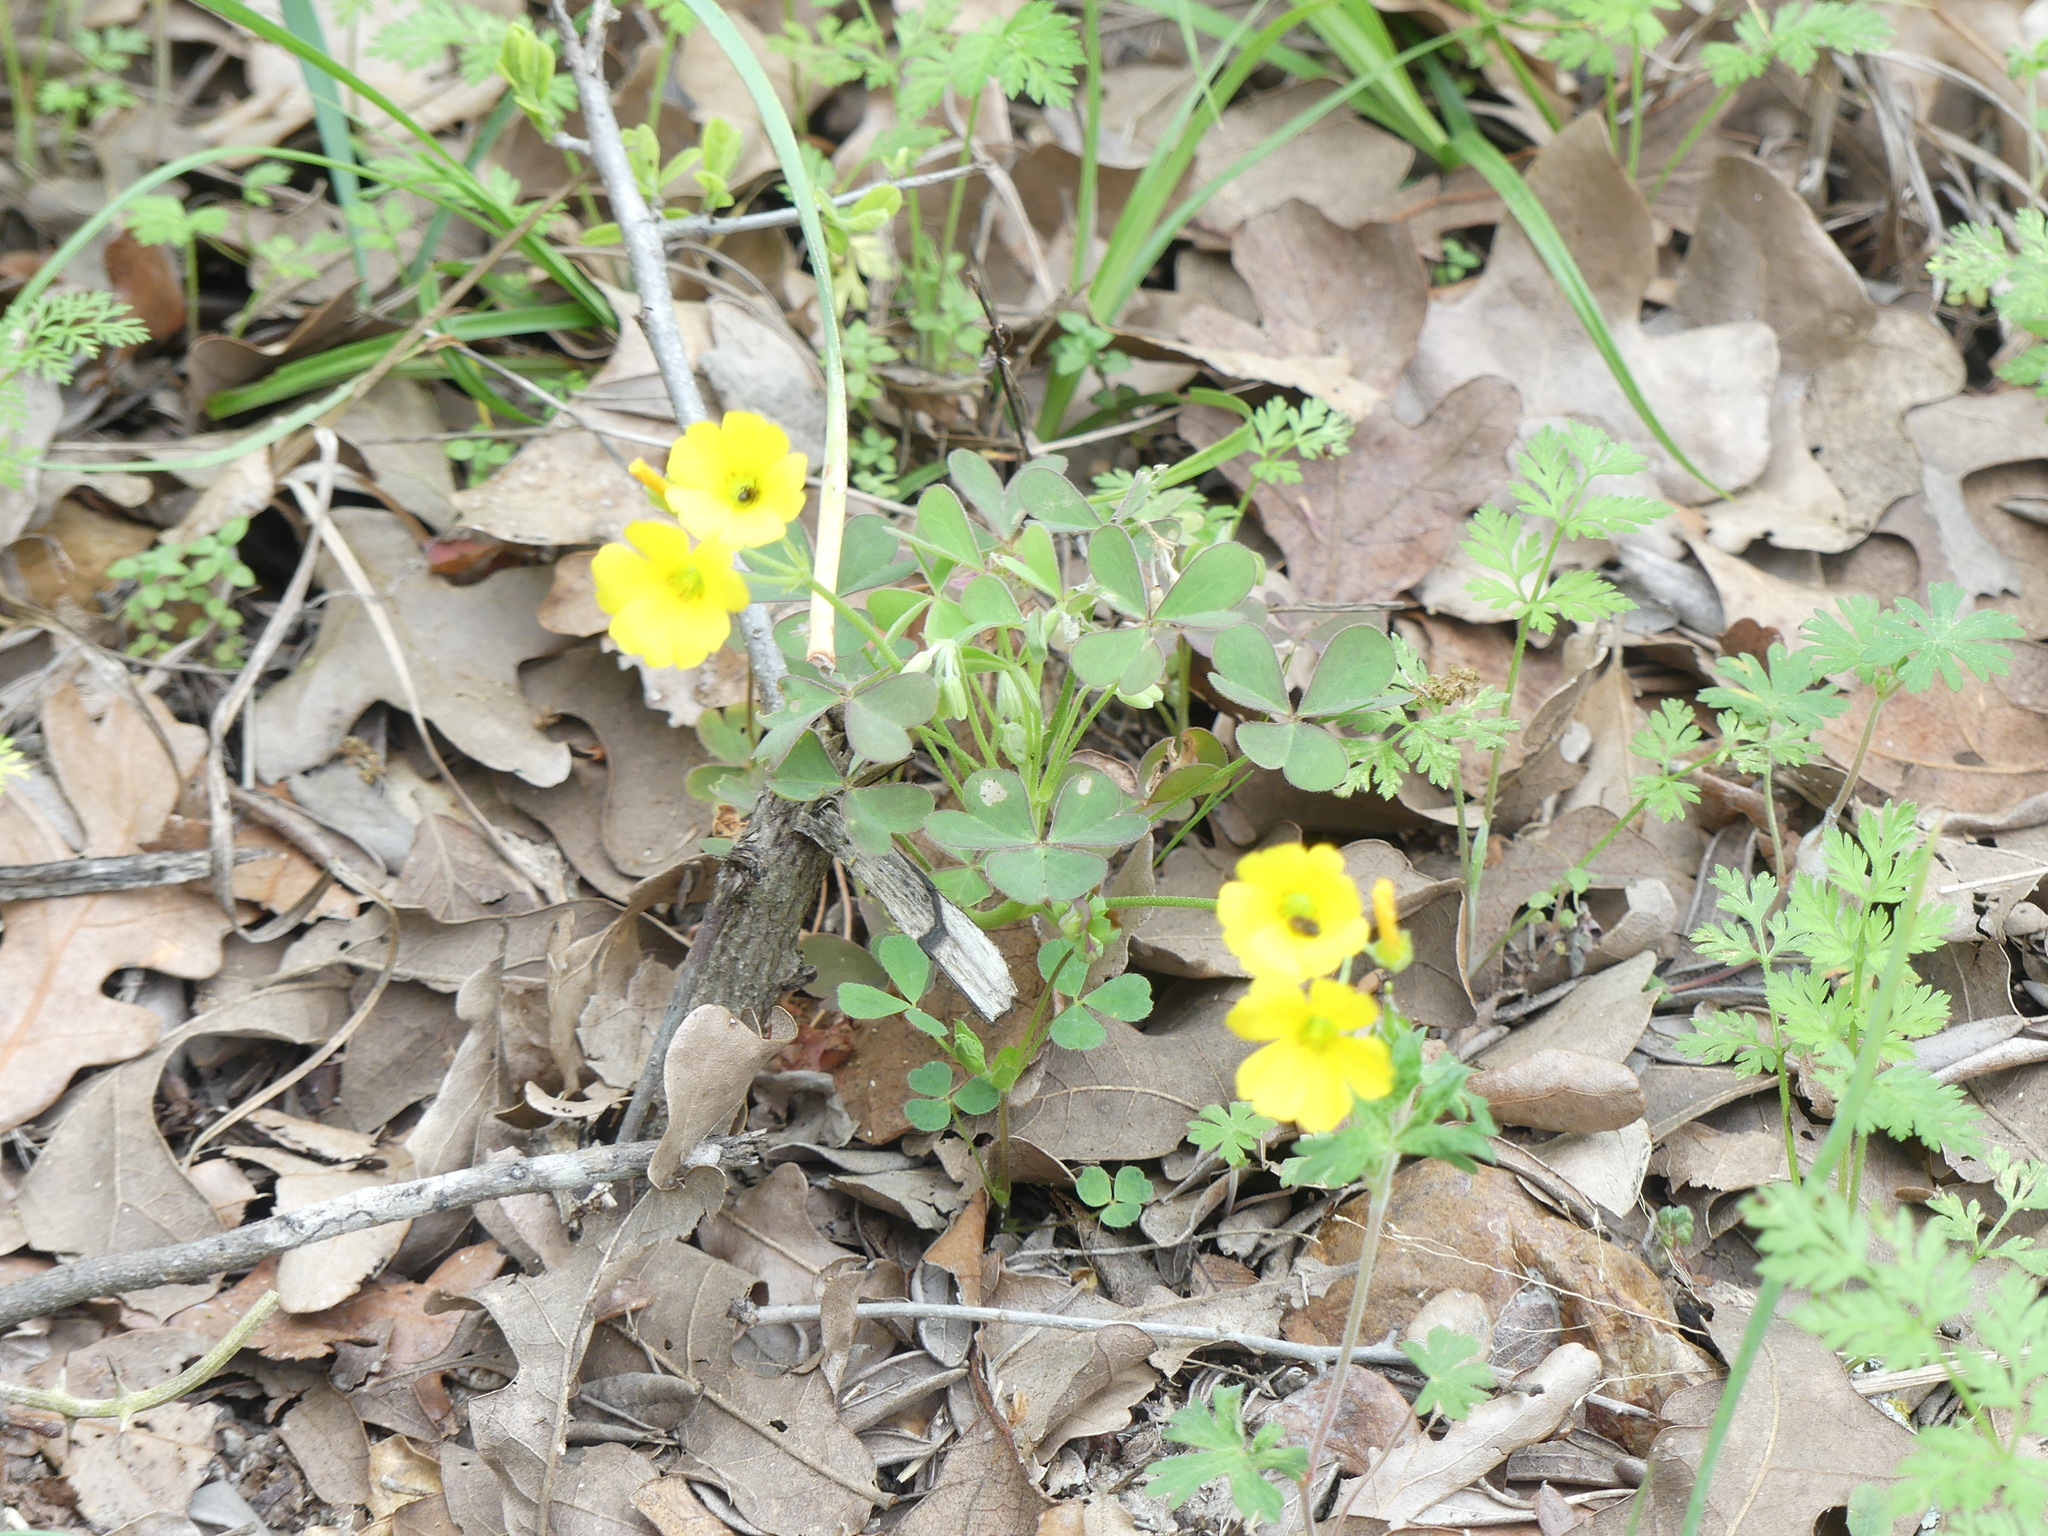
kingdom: Plantae
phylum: Tracheophyta
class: Magnoliopsida
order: Oxalidales
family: Oxalidaceae
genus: Oxalis
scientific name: Oxalis corniculata
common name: Procumbent yellow-sorrel
